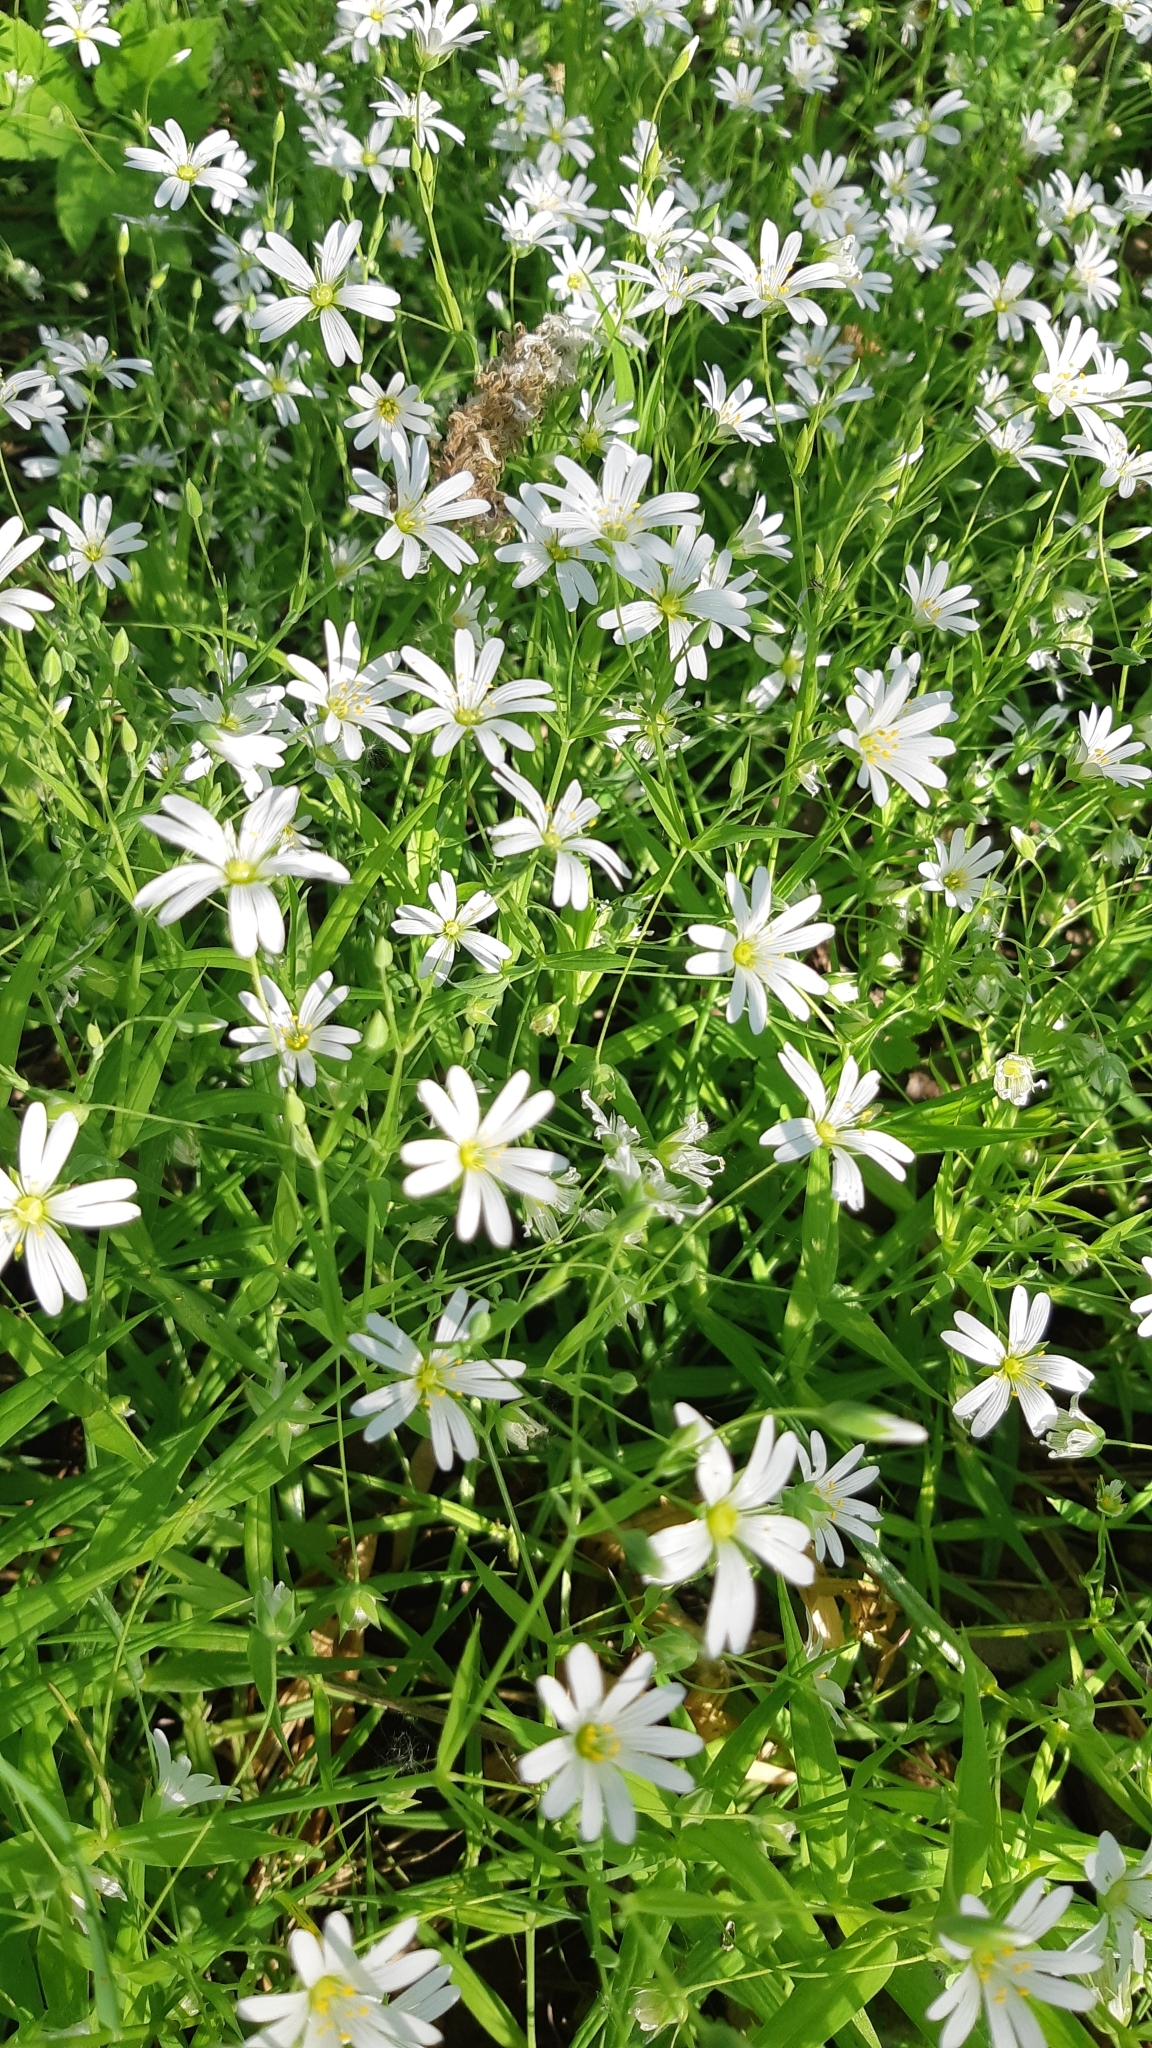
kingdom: Plantae
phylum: Tracheophyta
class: Magnoliopsida
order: Caryophyllales
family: Caryophyllaceae
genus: Rabelera
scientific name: Rabelera holostea
